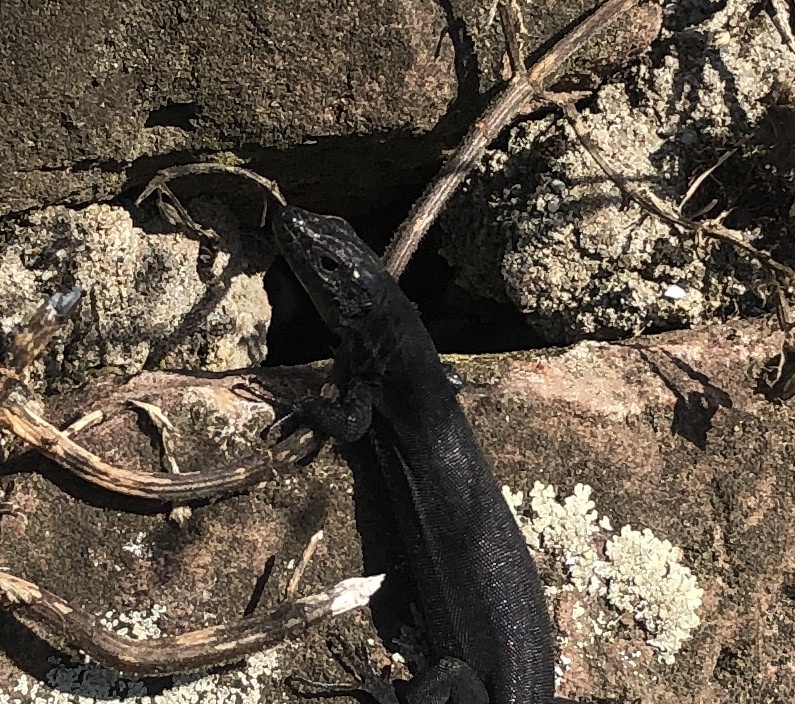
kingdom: Animalia
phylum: Chordata
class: Squamata
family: Lacertidae
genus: Podarcis
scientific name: Podarcis muralis
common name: Common wall lizard
